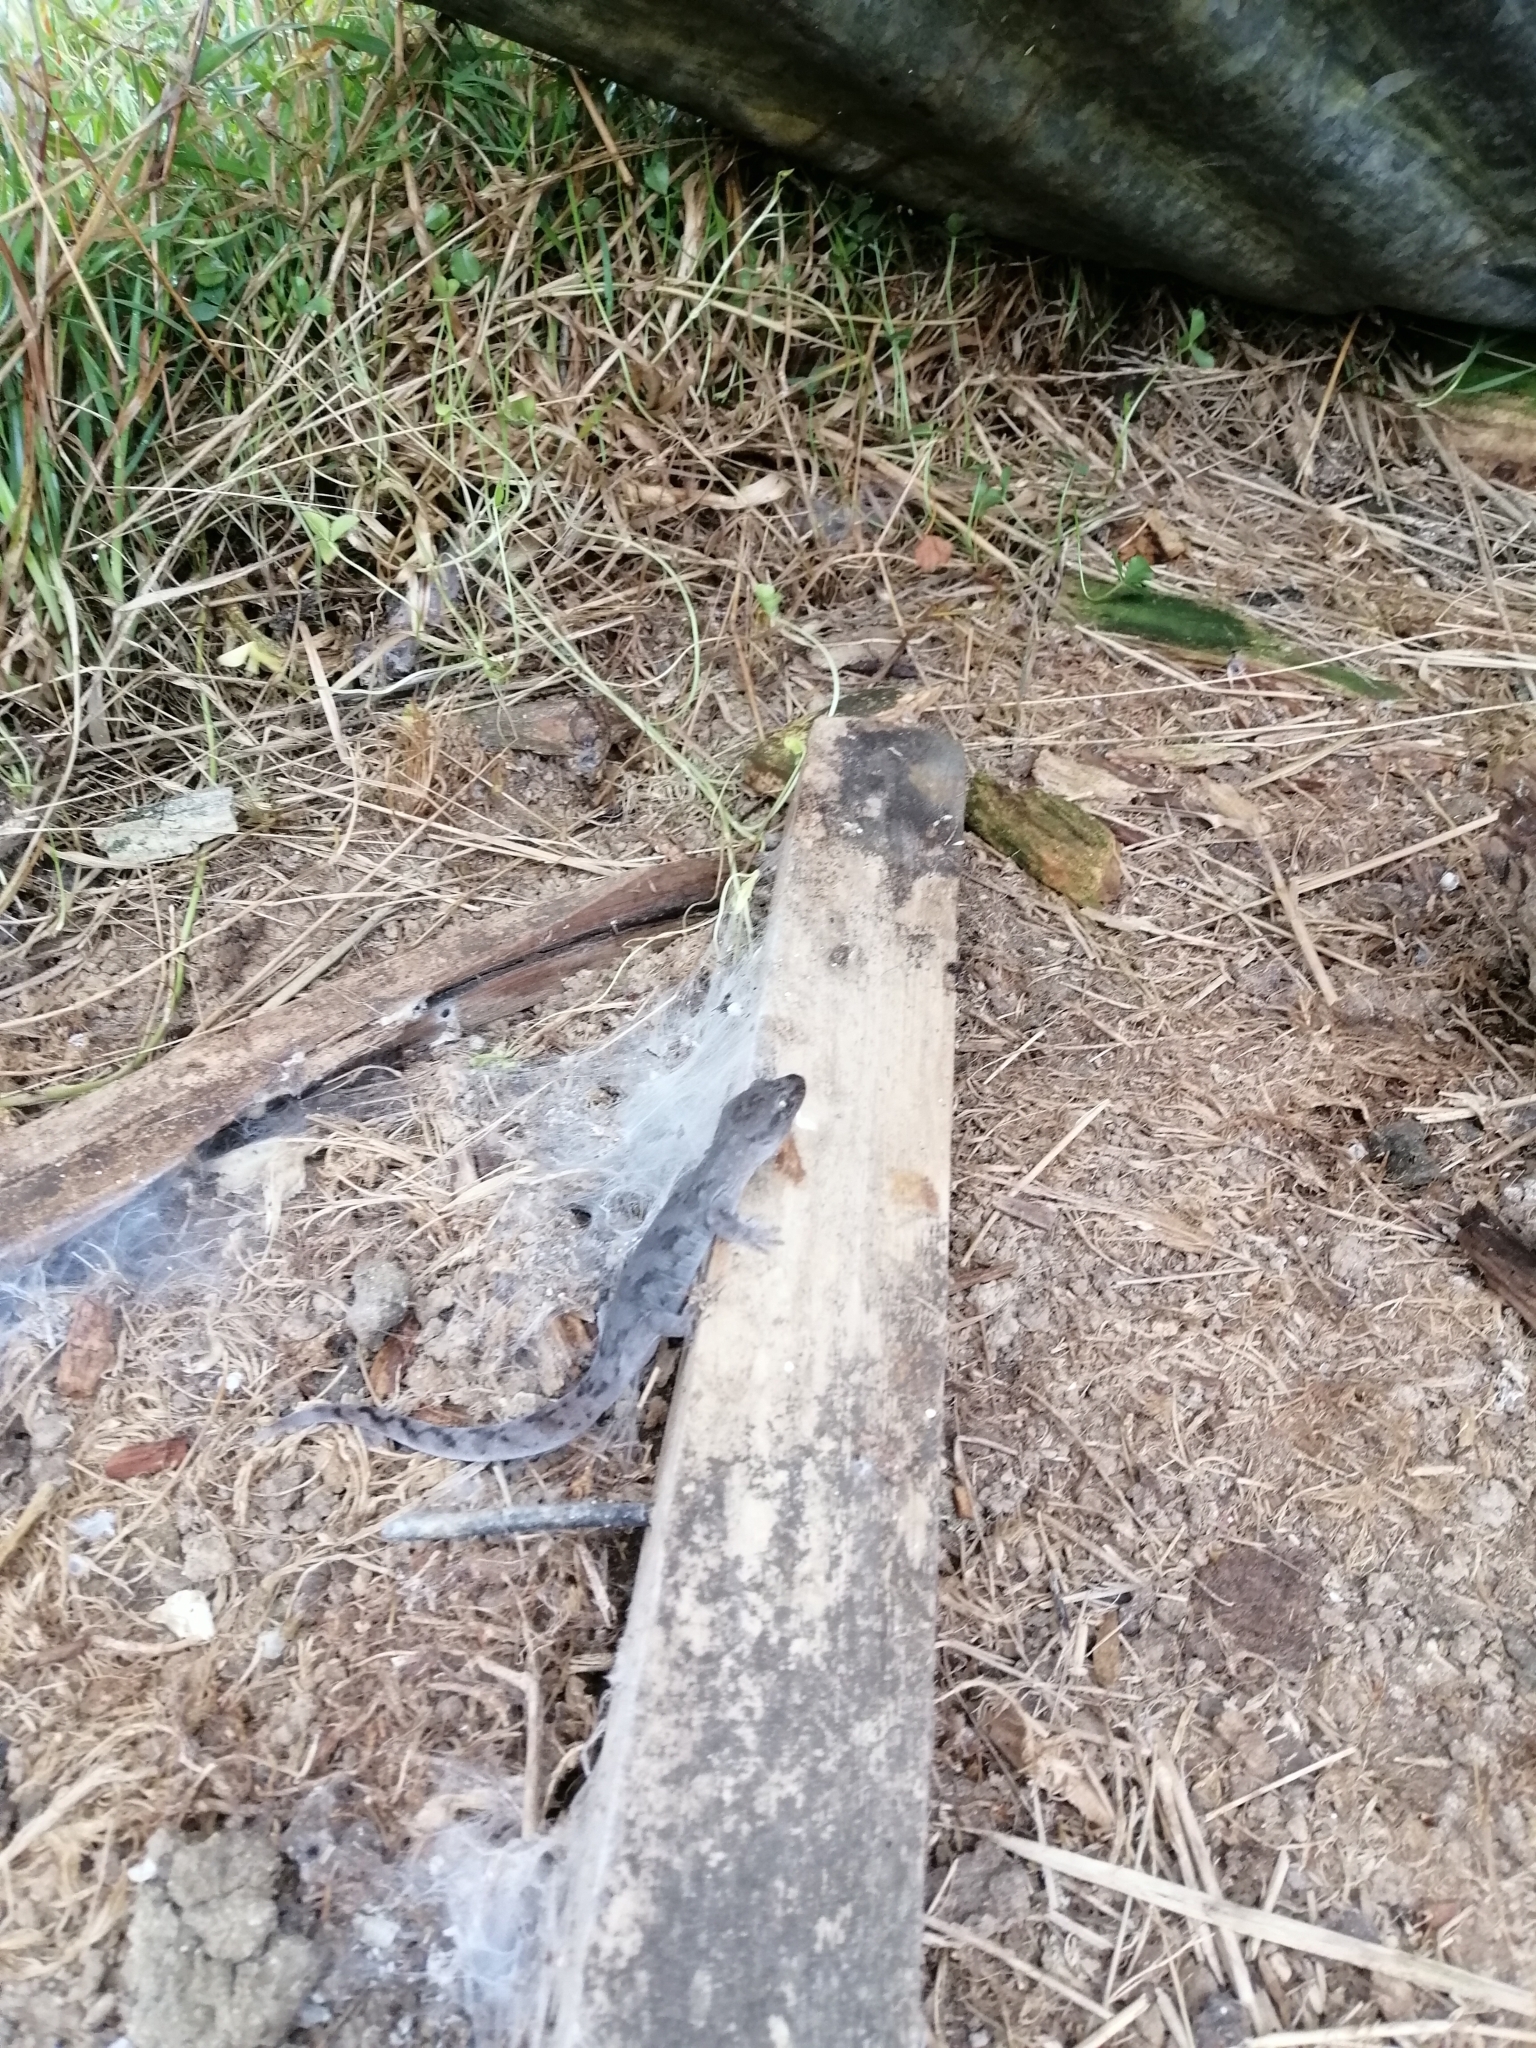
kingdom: Animalia
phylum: Chordata
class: Squamata
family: Diplodactylidae
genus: Woodworthia
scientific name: Woodworthia maculata
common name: Raukawa gecko
